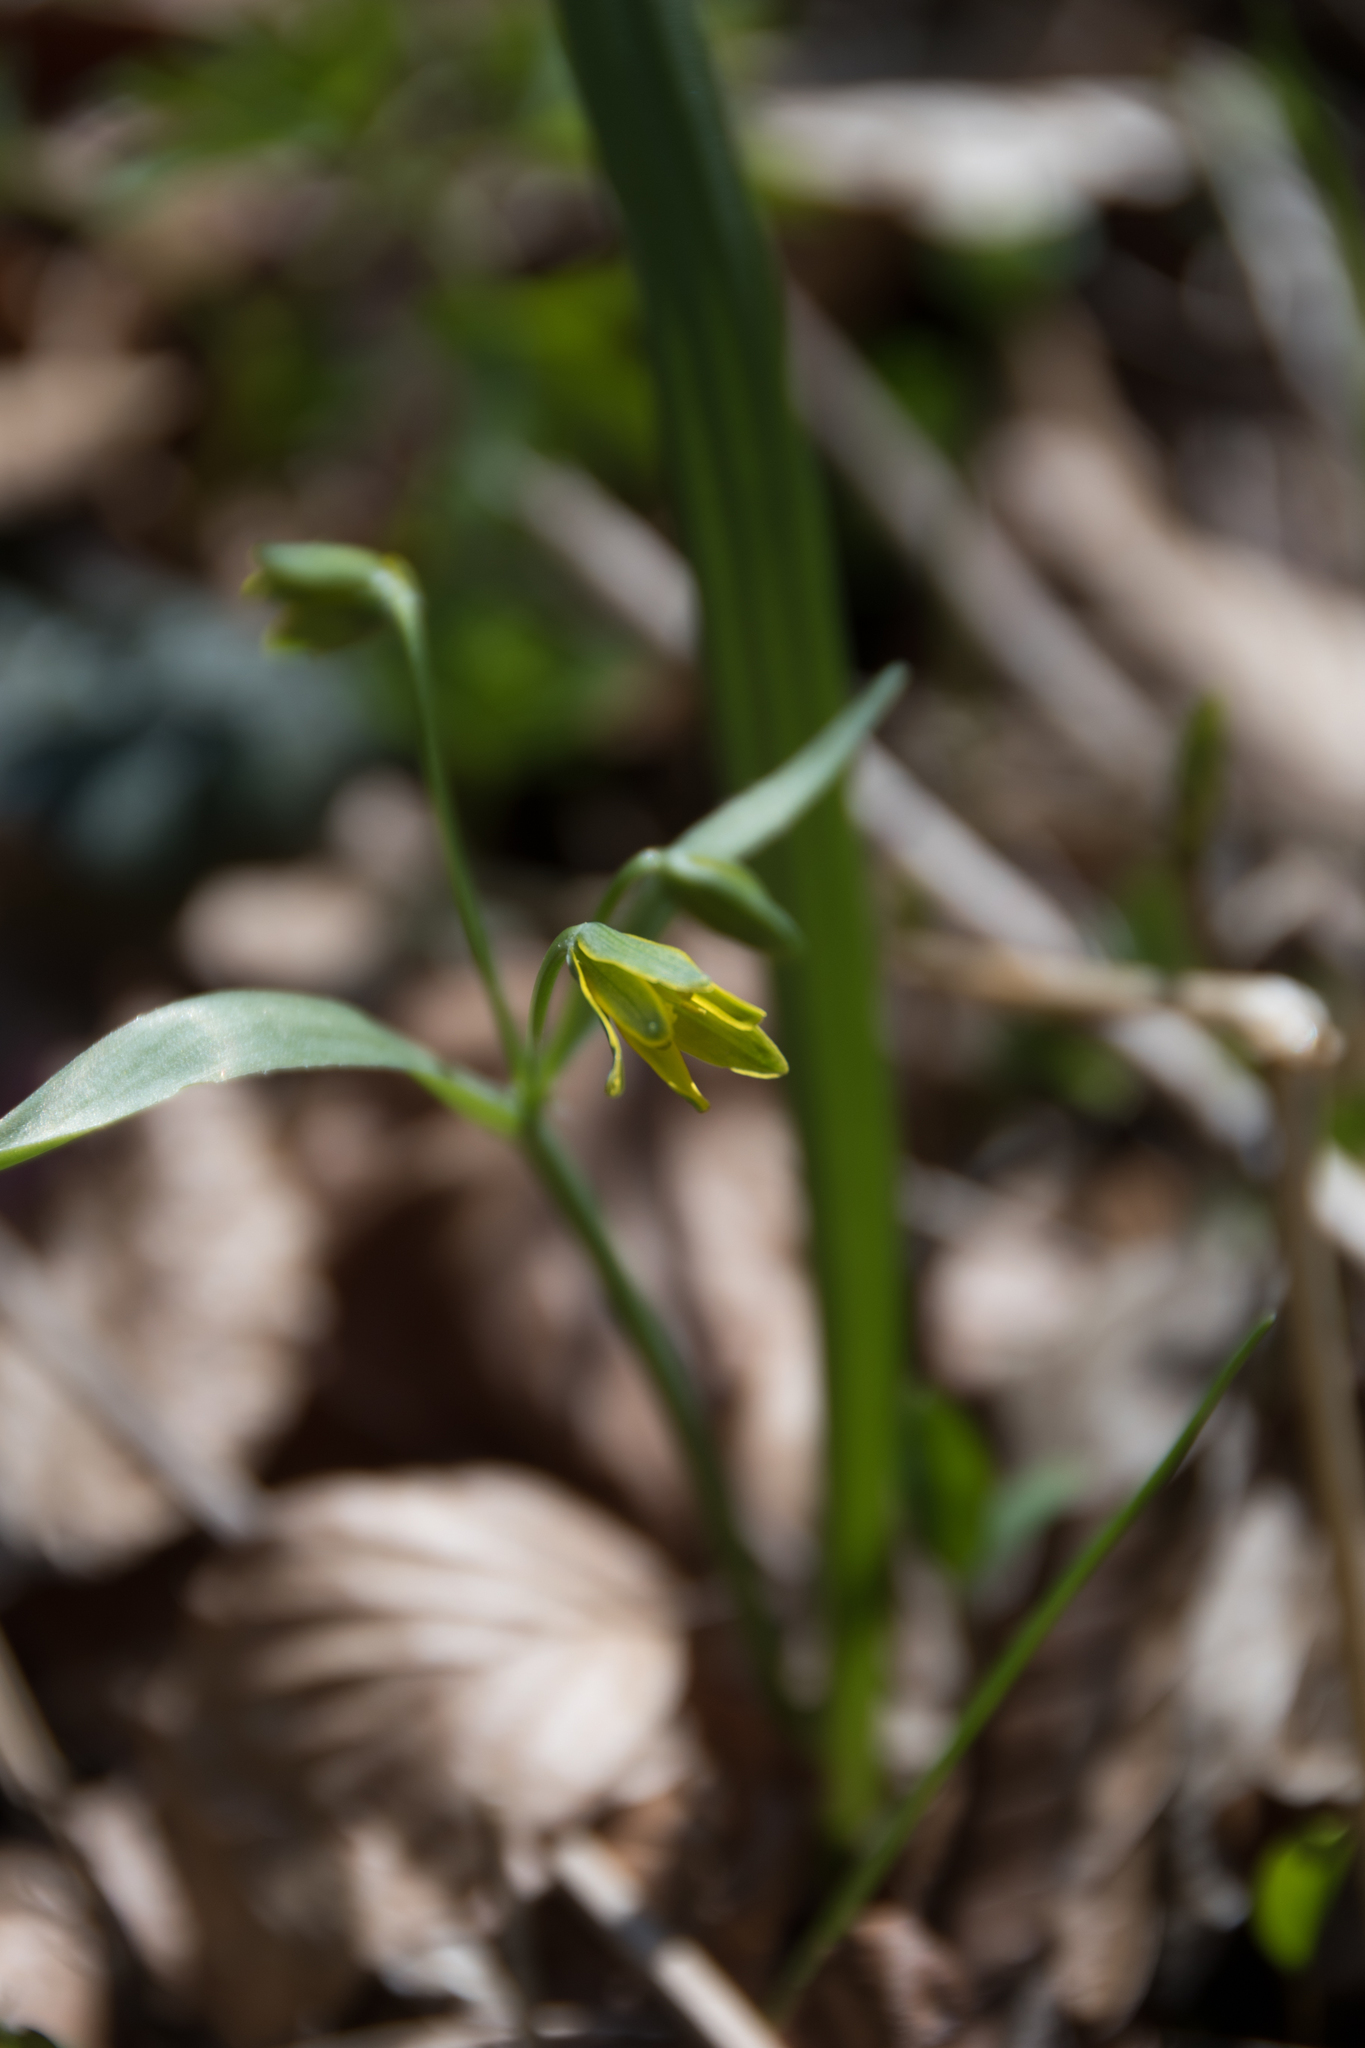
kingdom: Plantae
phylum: Tracheophyta
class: Liliopsida
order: Liliales
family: Liliaceae
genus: Gagea
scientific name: Gagea lutea
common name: Yellow star-of-bethlehem
